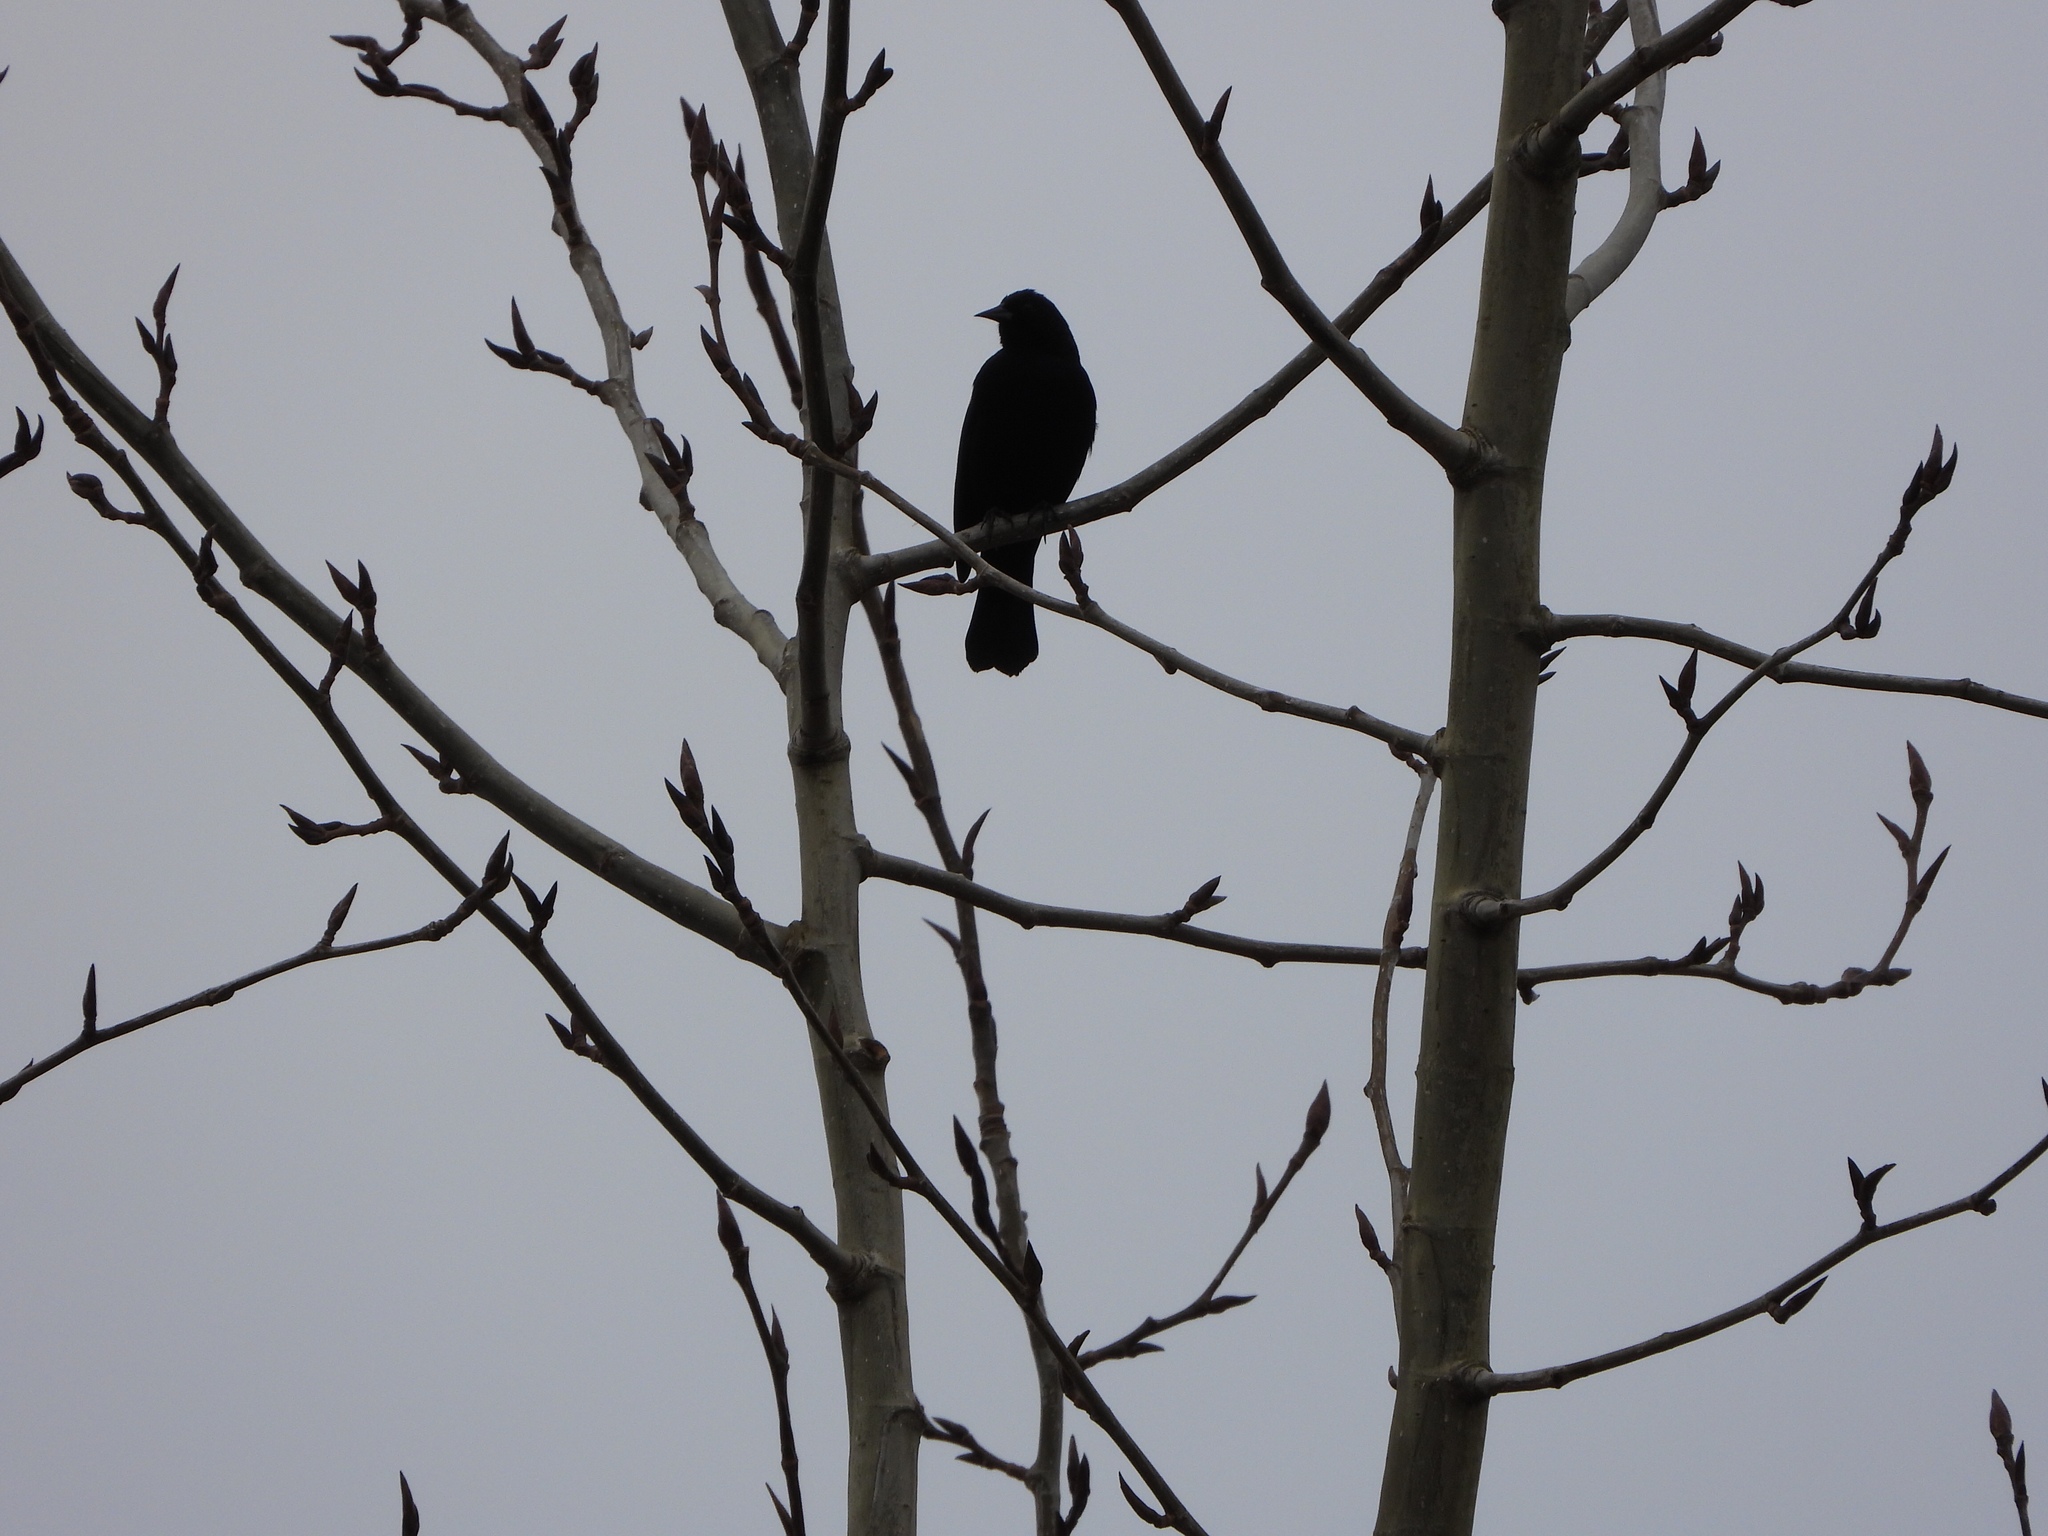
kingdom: Animalia
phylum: Chordata
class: Aves
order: Passeriformes
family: Icteridae
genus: Agelaius
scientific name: Agelaius phoeniceus
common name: Red-winged blackbird
